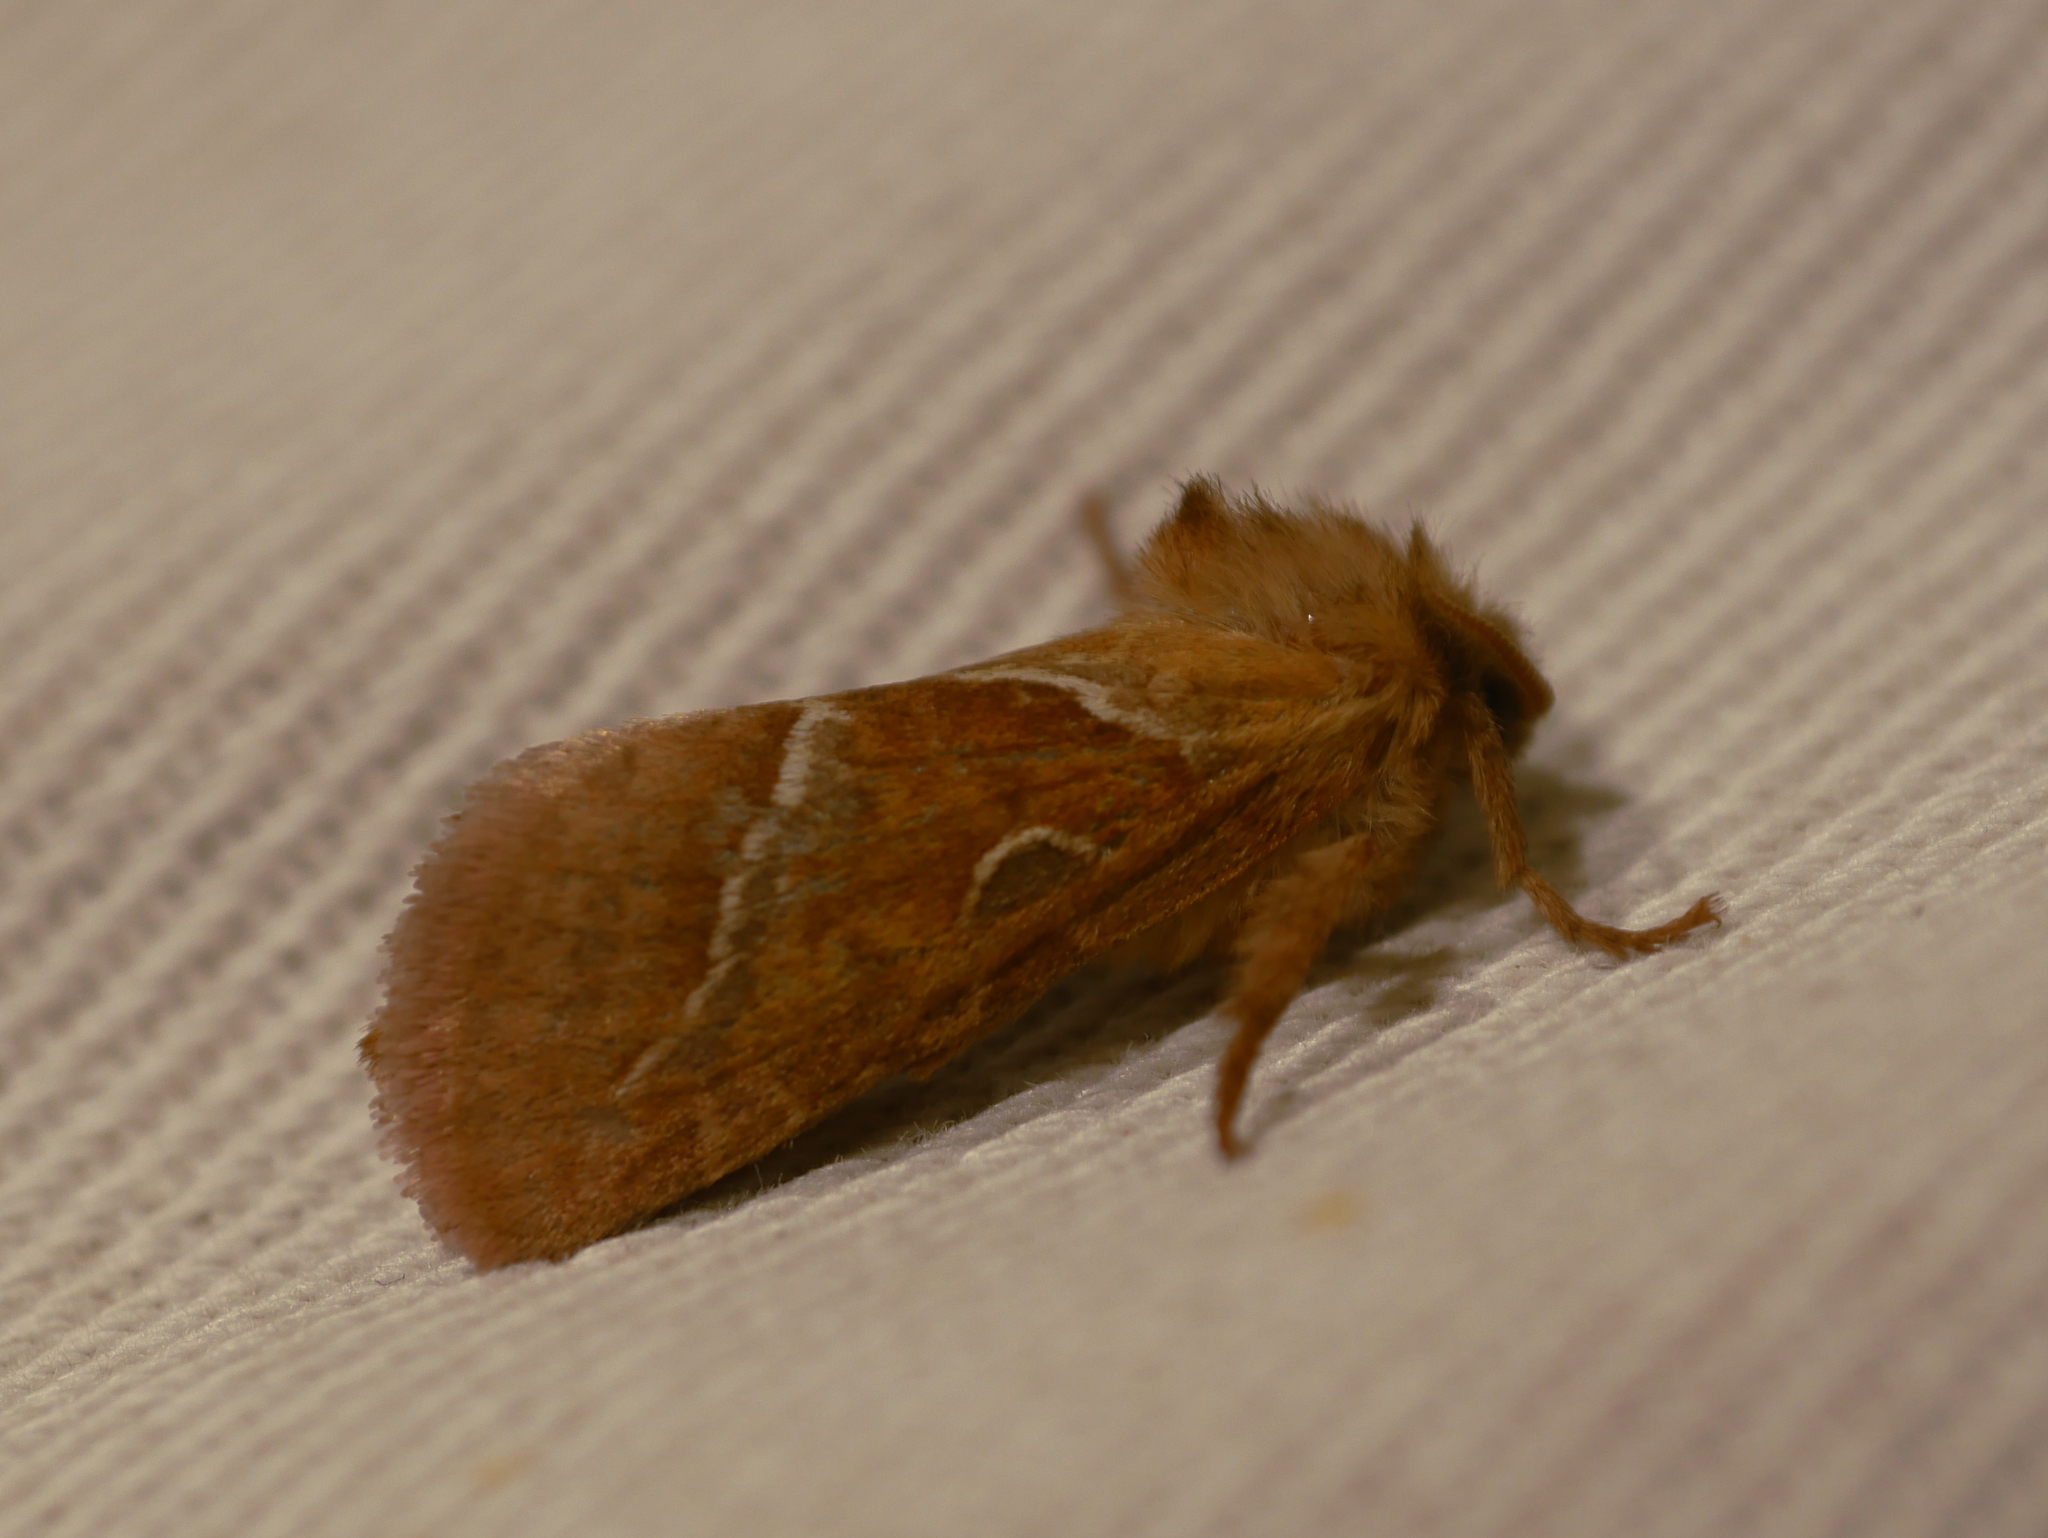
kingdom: Animalia
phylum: Arthropoda
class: Insecta
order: Lepidoptera
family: Hepialidae
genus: Triodia
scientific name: Triodia sylvina
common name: Orange swift
